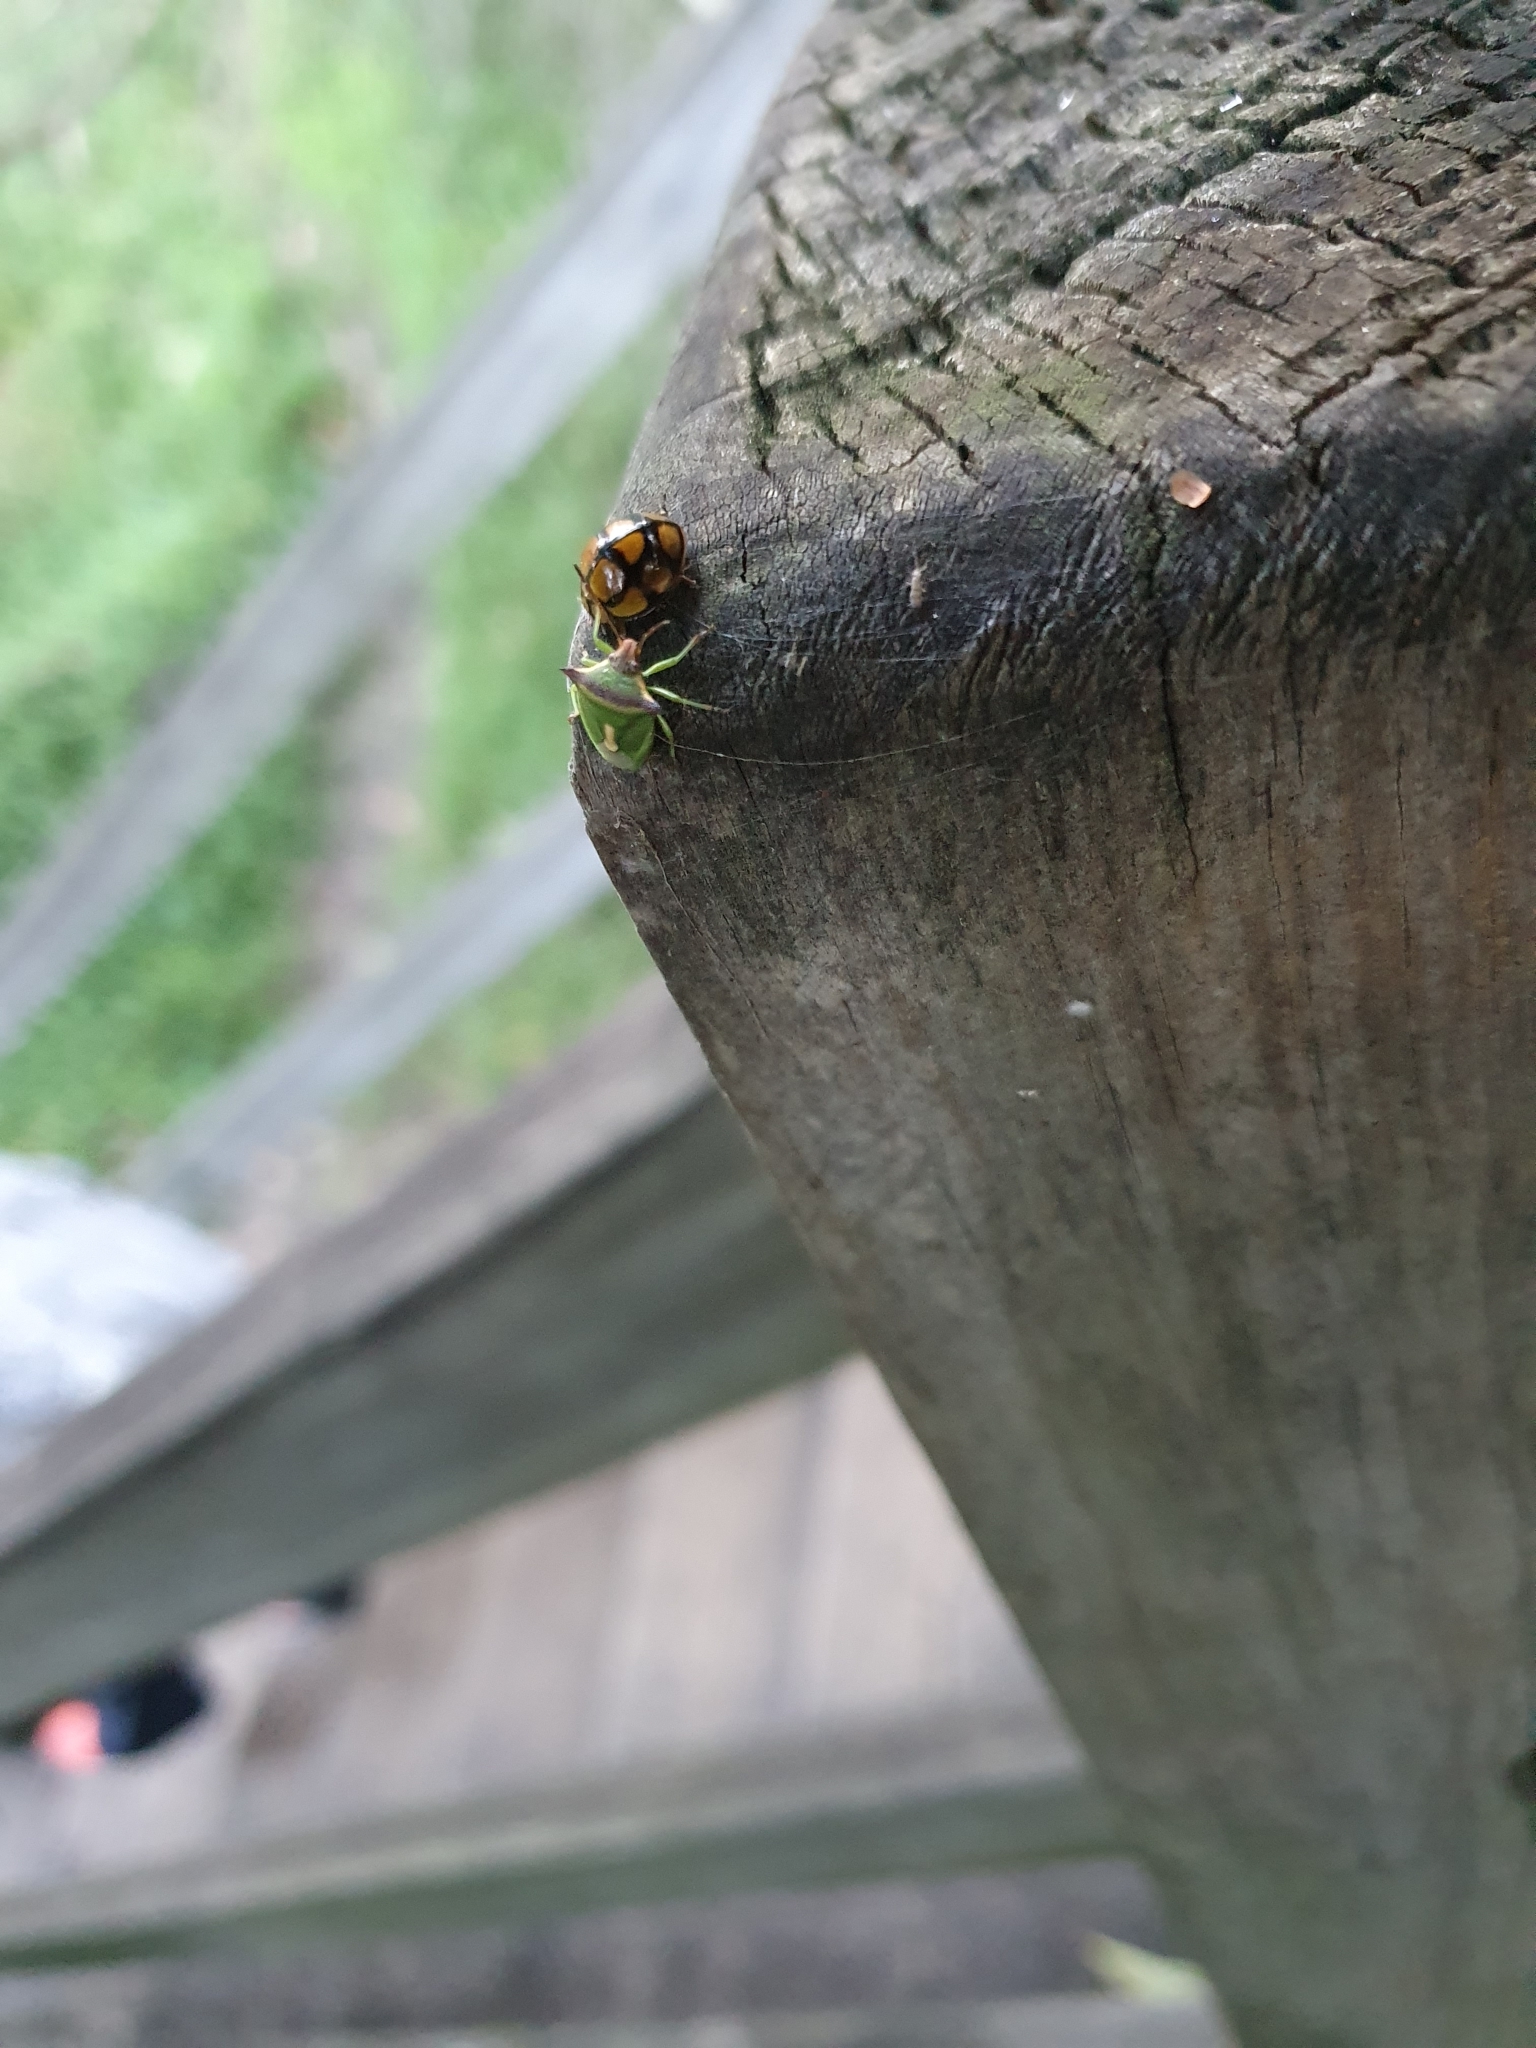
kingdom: Animalia
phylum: Arthropoda
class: Insecta
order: Coleoptera
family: Coccinellidae
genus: Harmonia
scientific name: Harmonia
